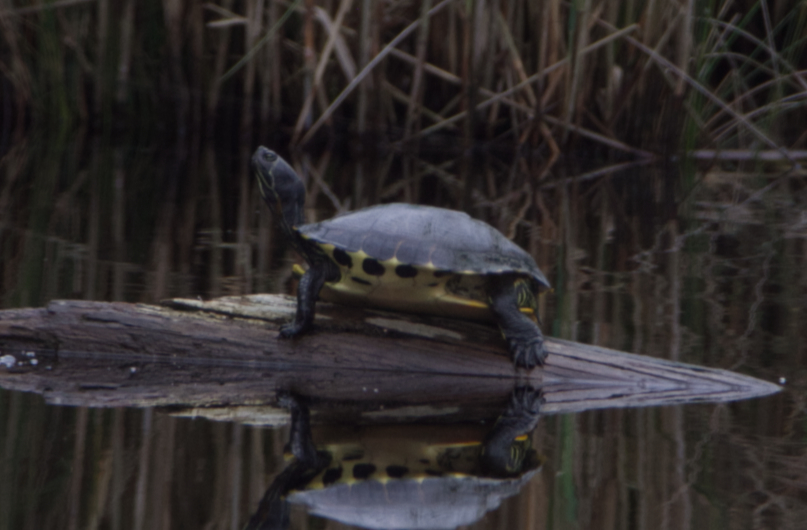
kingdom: Animalia
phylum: Chordata
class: Testudines
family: Emydidae
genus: Trachemys
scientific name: Trachemys scripta
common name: Slider
